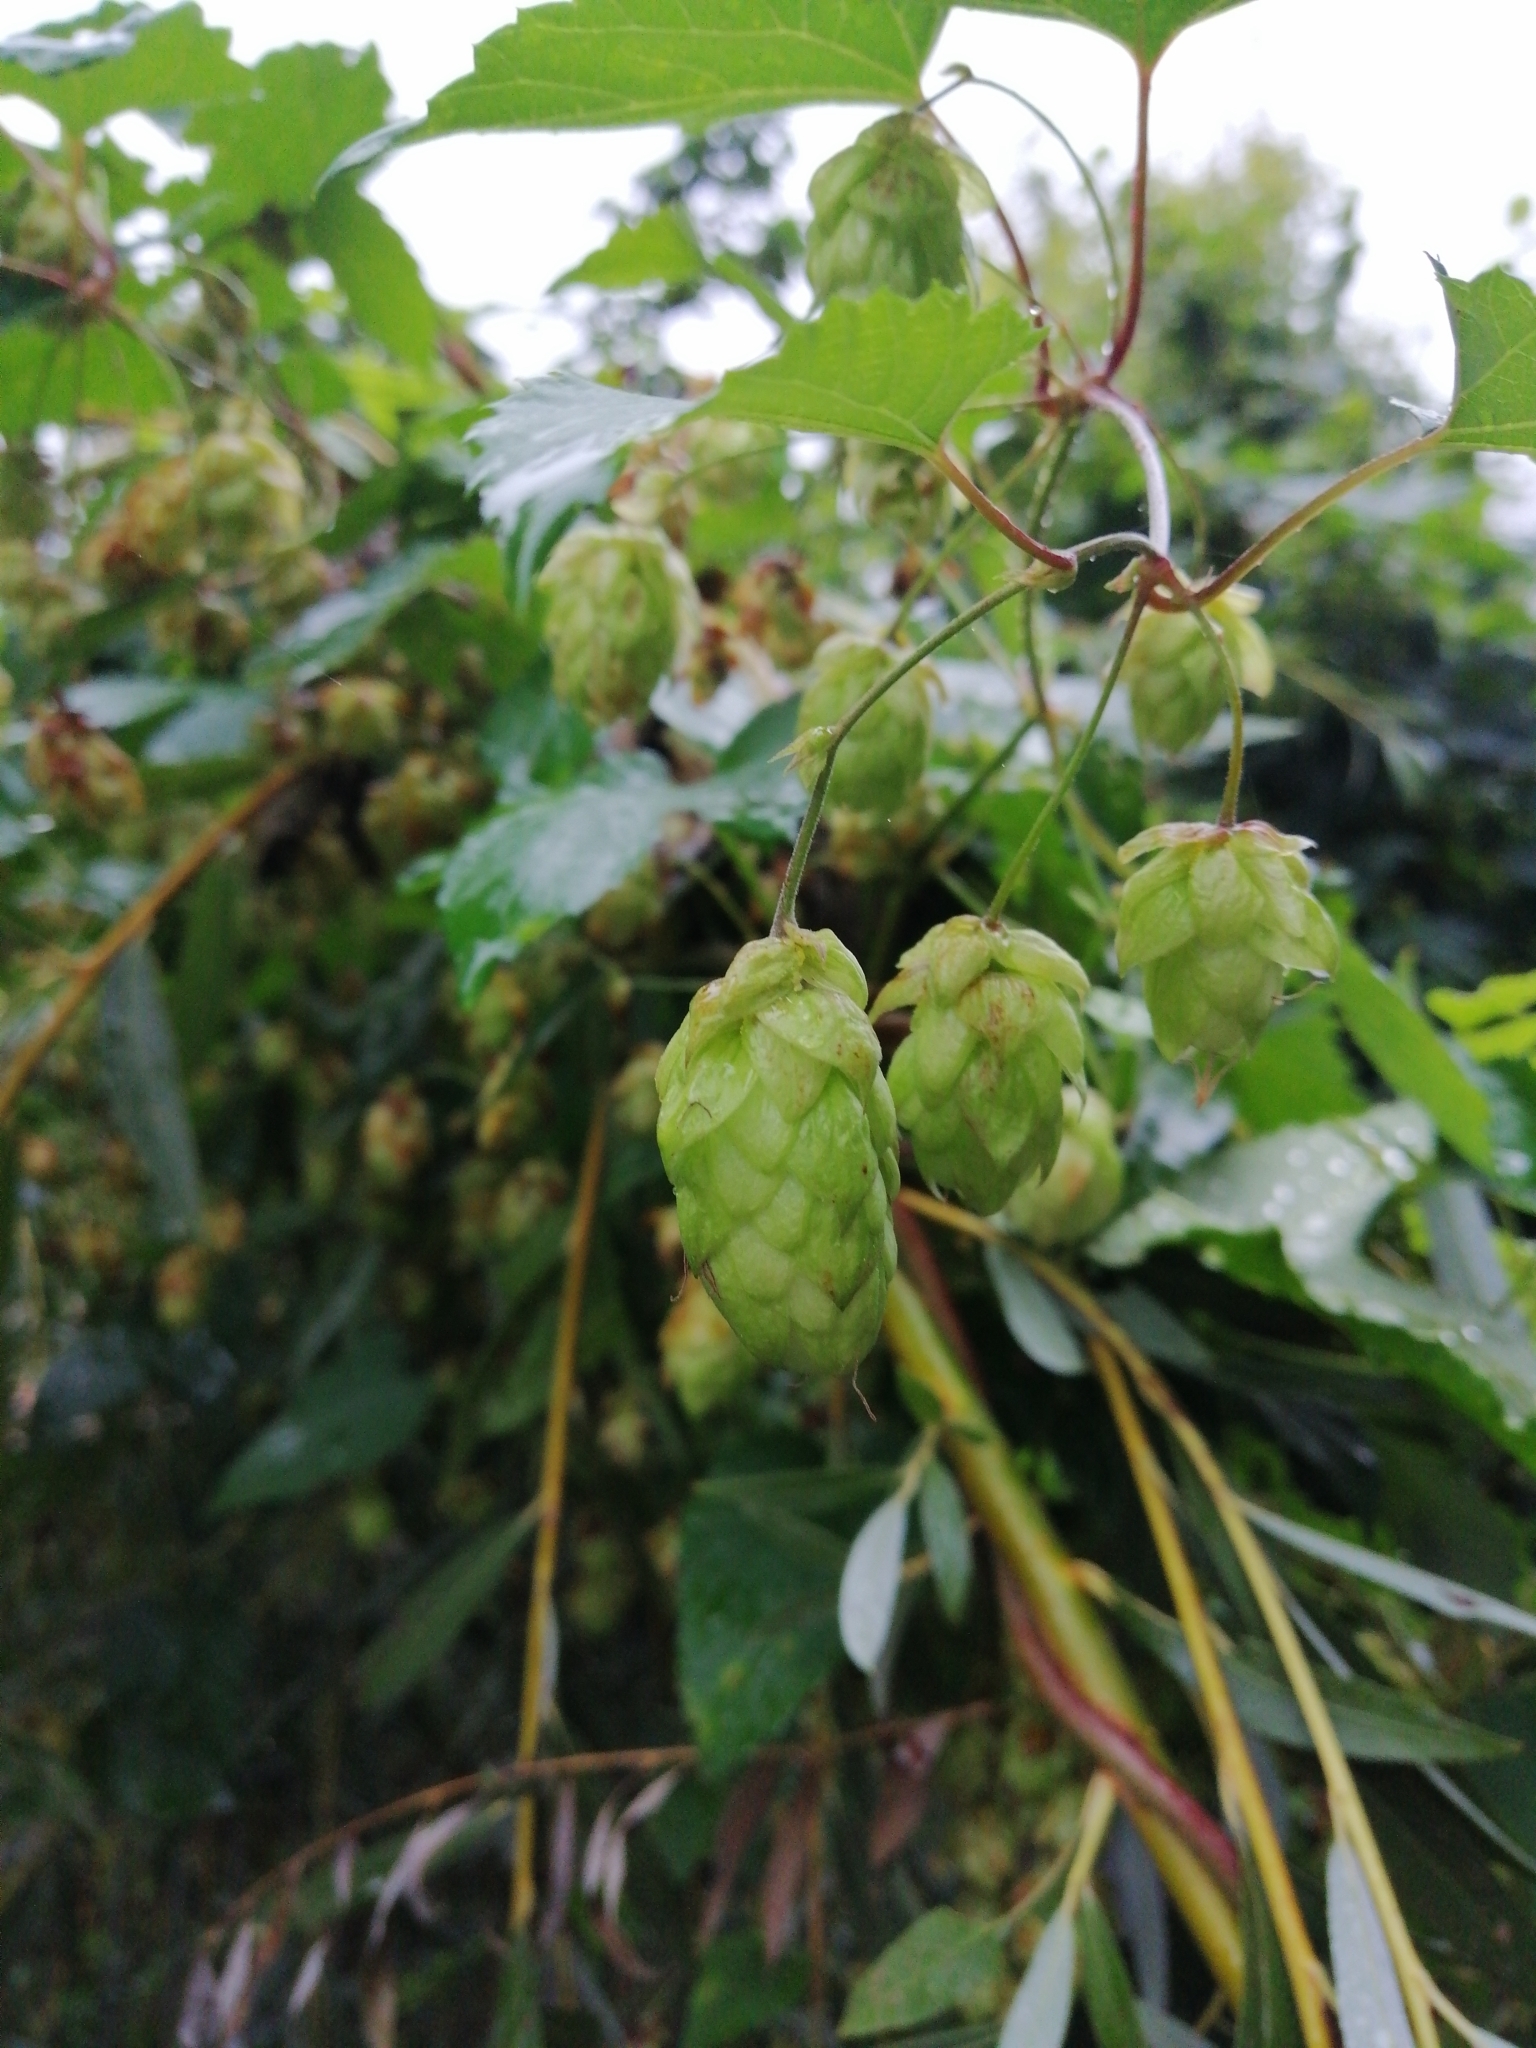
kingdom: Plantae
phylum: Tracheophyta
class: Magnoliopsida
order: Rosales
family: Cannabaceae
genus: Humulus
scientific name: Humulus lupulus
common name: Hop
